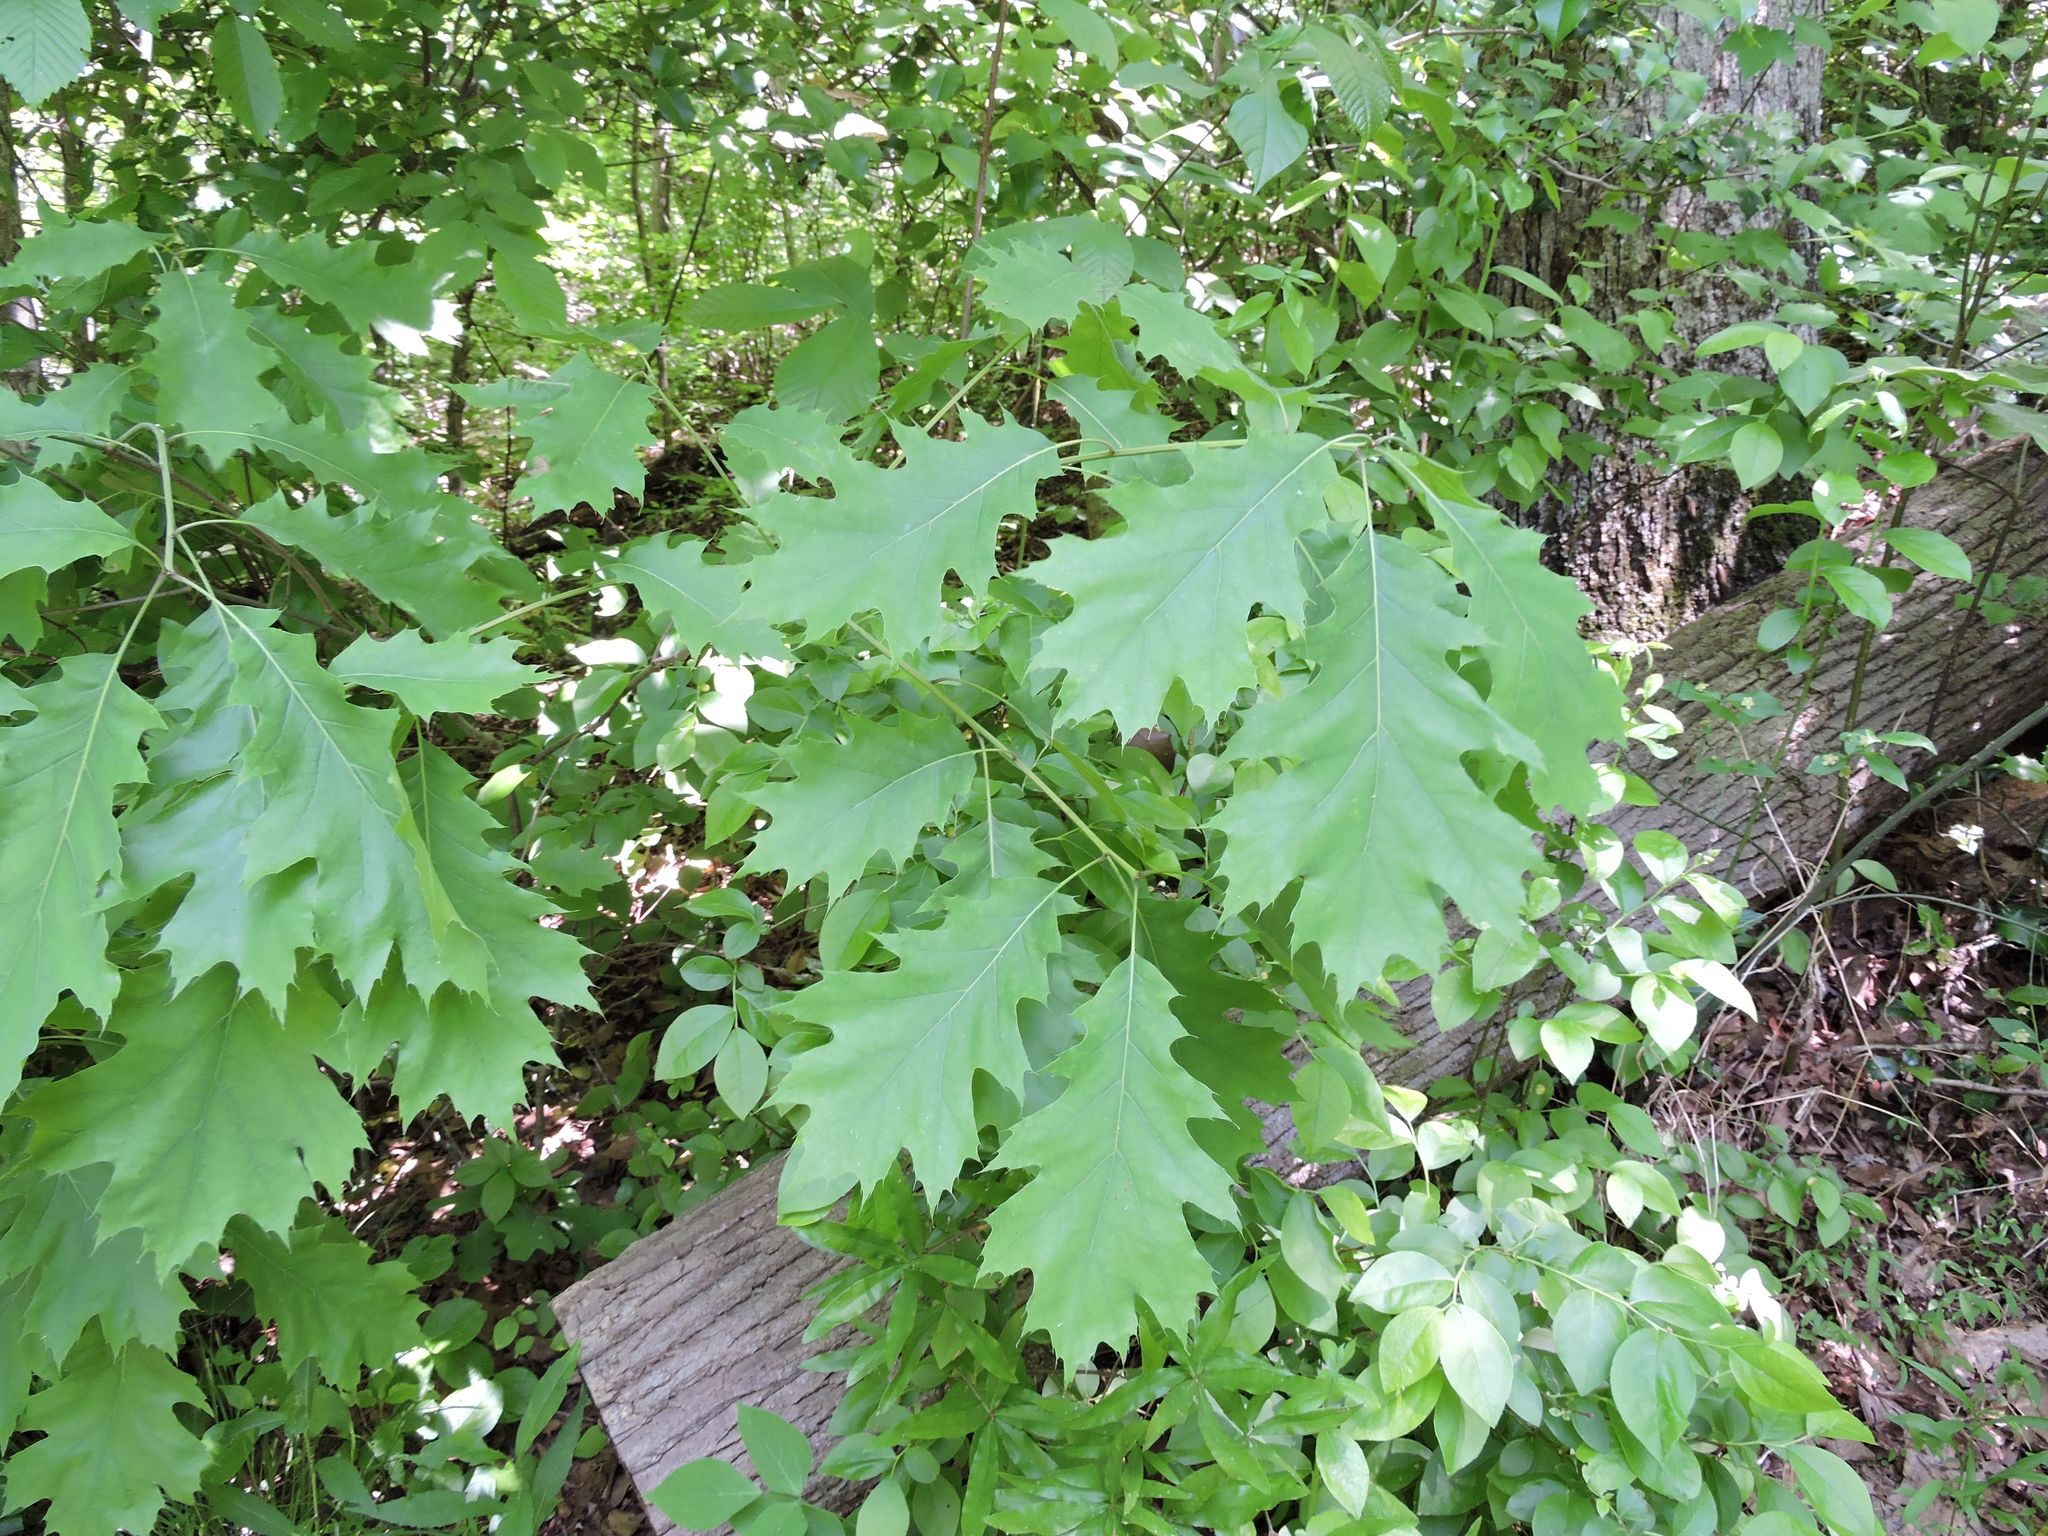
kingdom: Plantae
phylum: Tracheophyta
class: Magnoliopsida
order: Fagales
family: Fagaceae
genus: Quercus
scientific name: Quercus rubra
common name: Red oak
